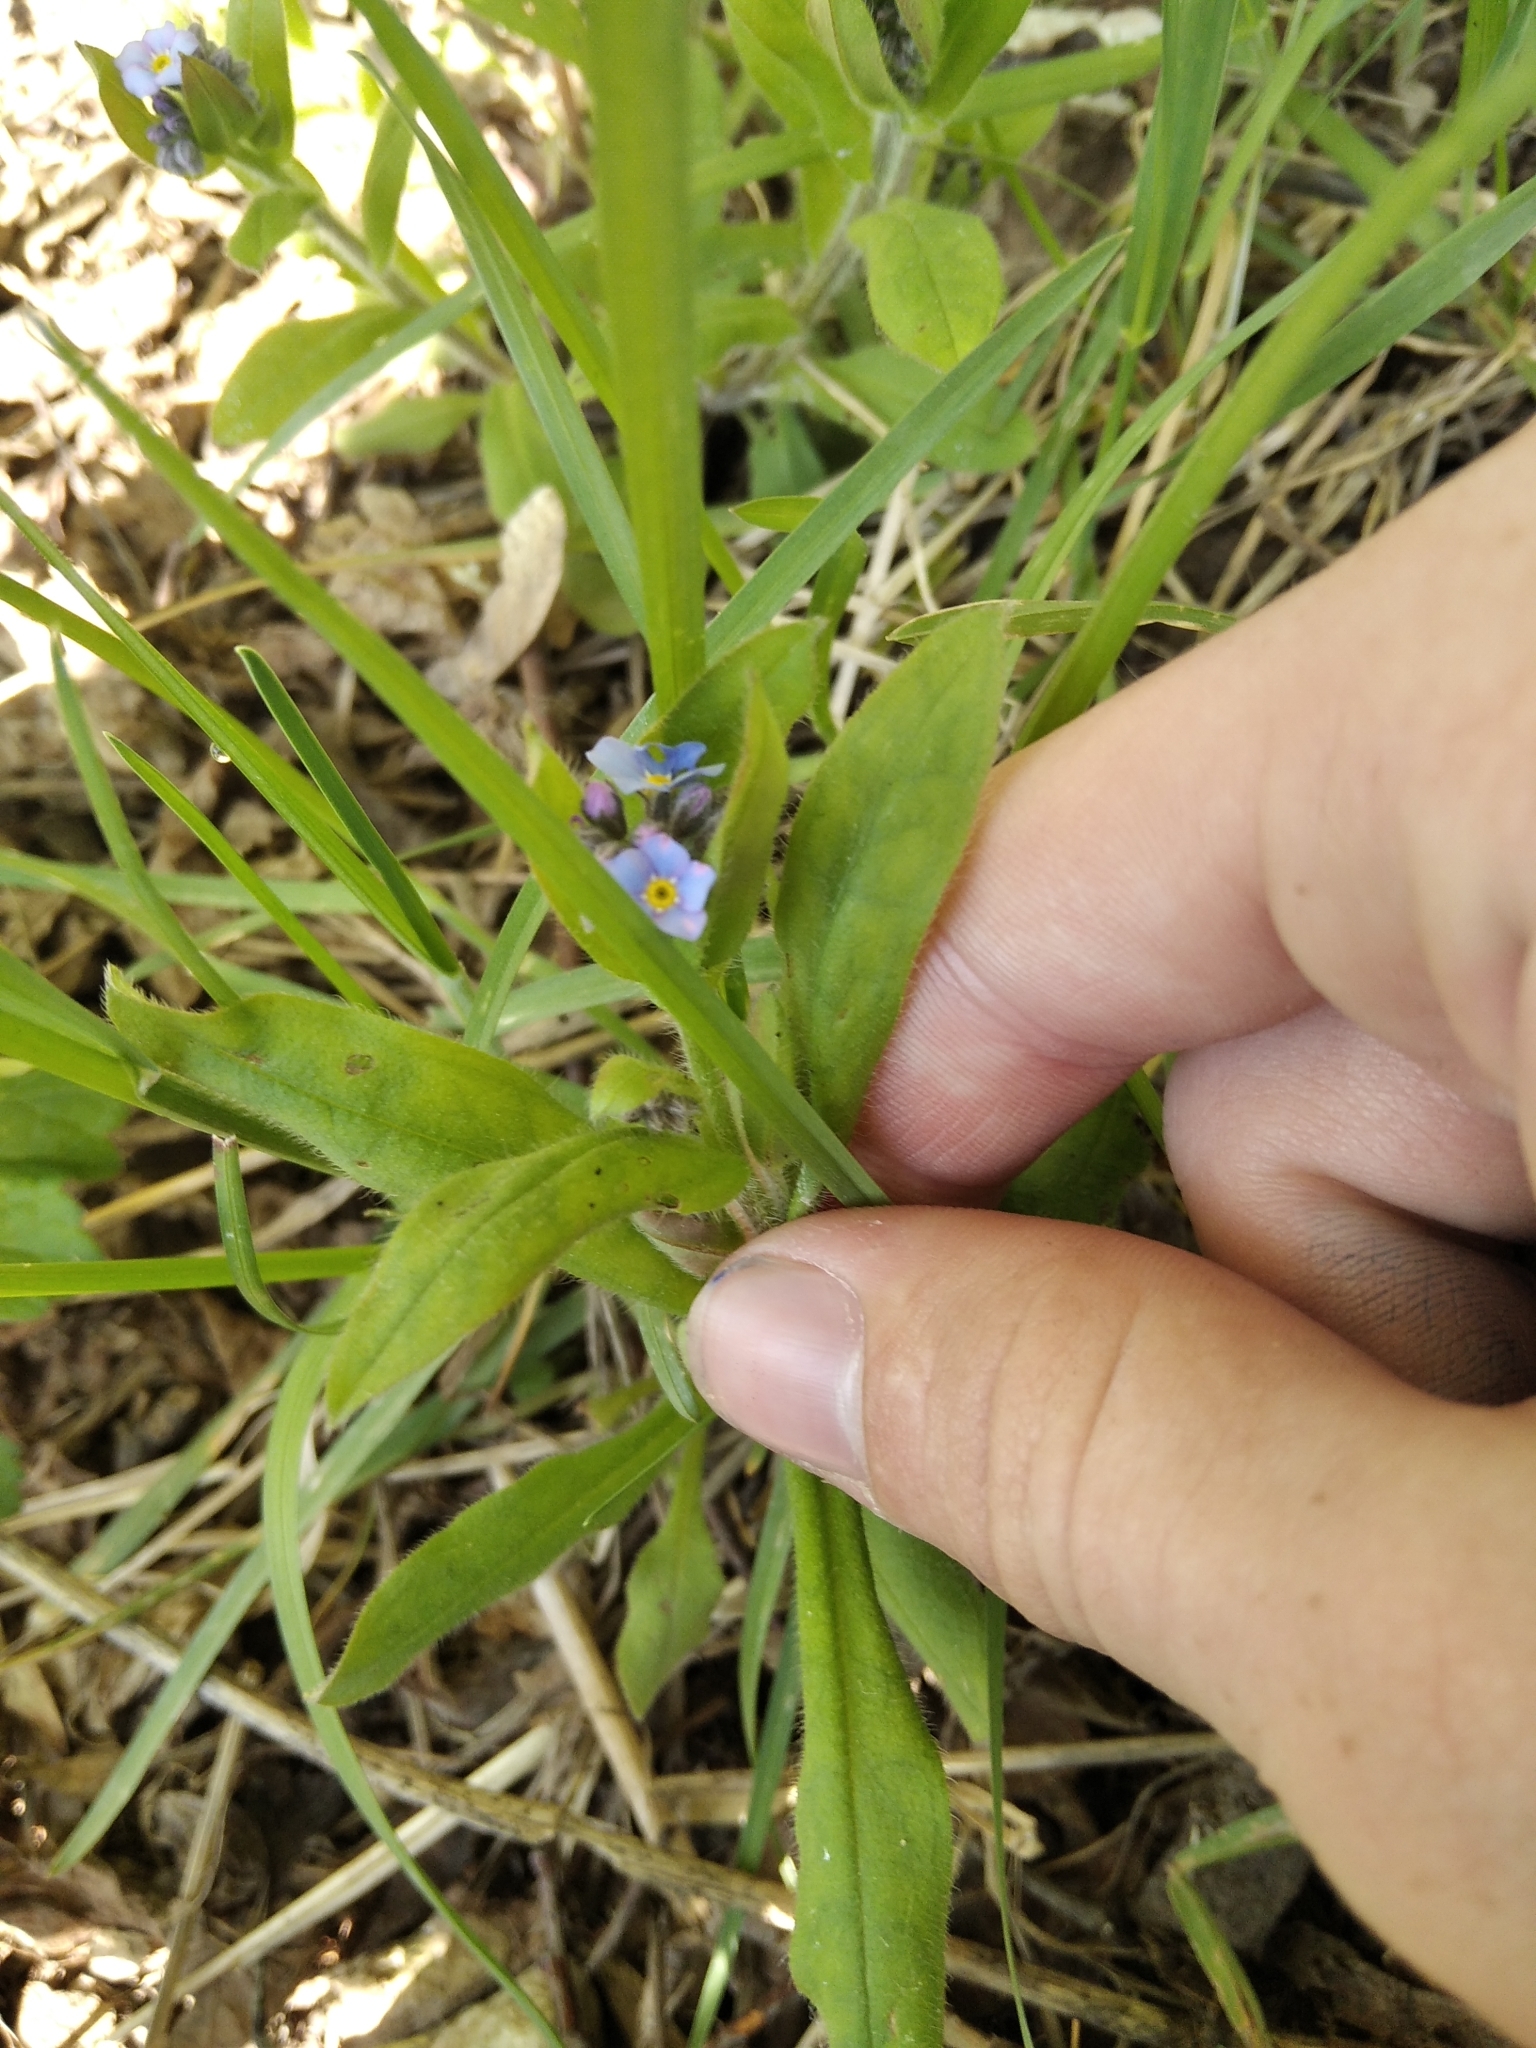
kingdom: Plantae
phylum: Tracheophyta
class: Magnoliopsida
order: Boraginales
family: Boraginaceae
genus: Myosotis
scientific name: Myosotis sylvatica
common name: Wood forget-me-not
